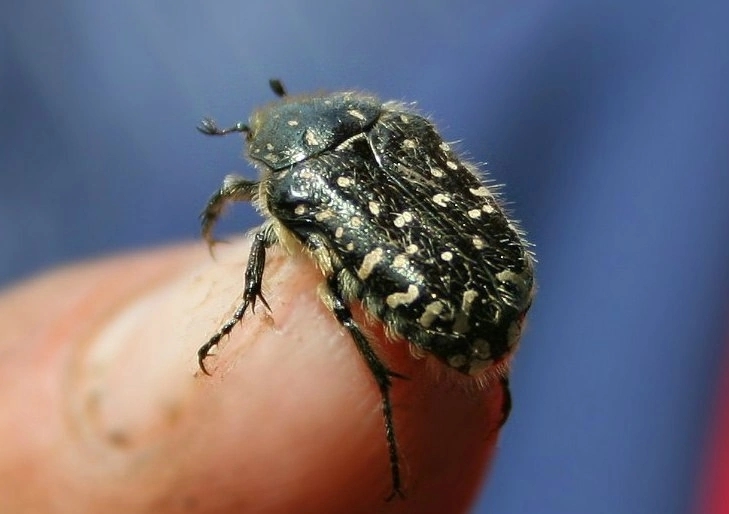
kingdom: Animalia
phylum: Arthropoda
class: Insecta
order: Coleoptera
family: Scarabaeidae
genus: Oxythyrea
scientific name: Oxythyrea funesta
